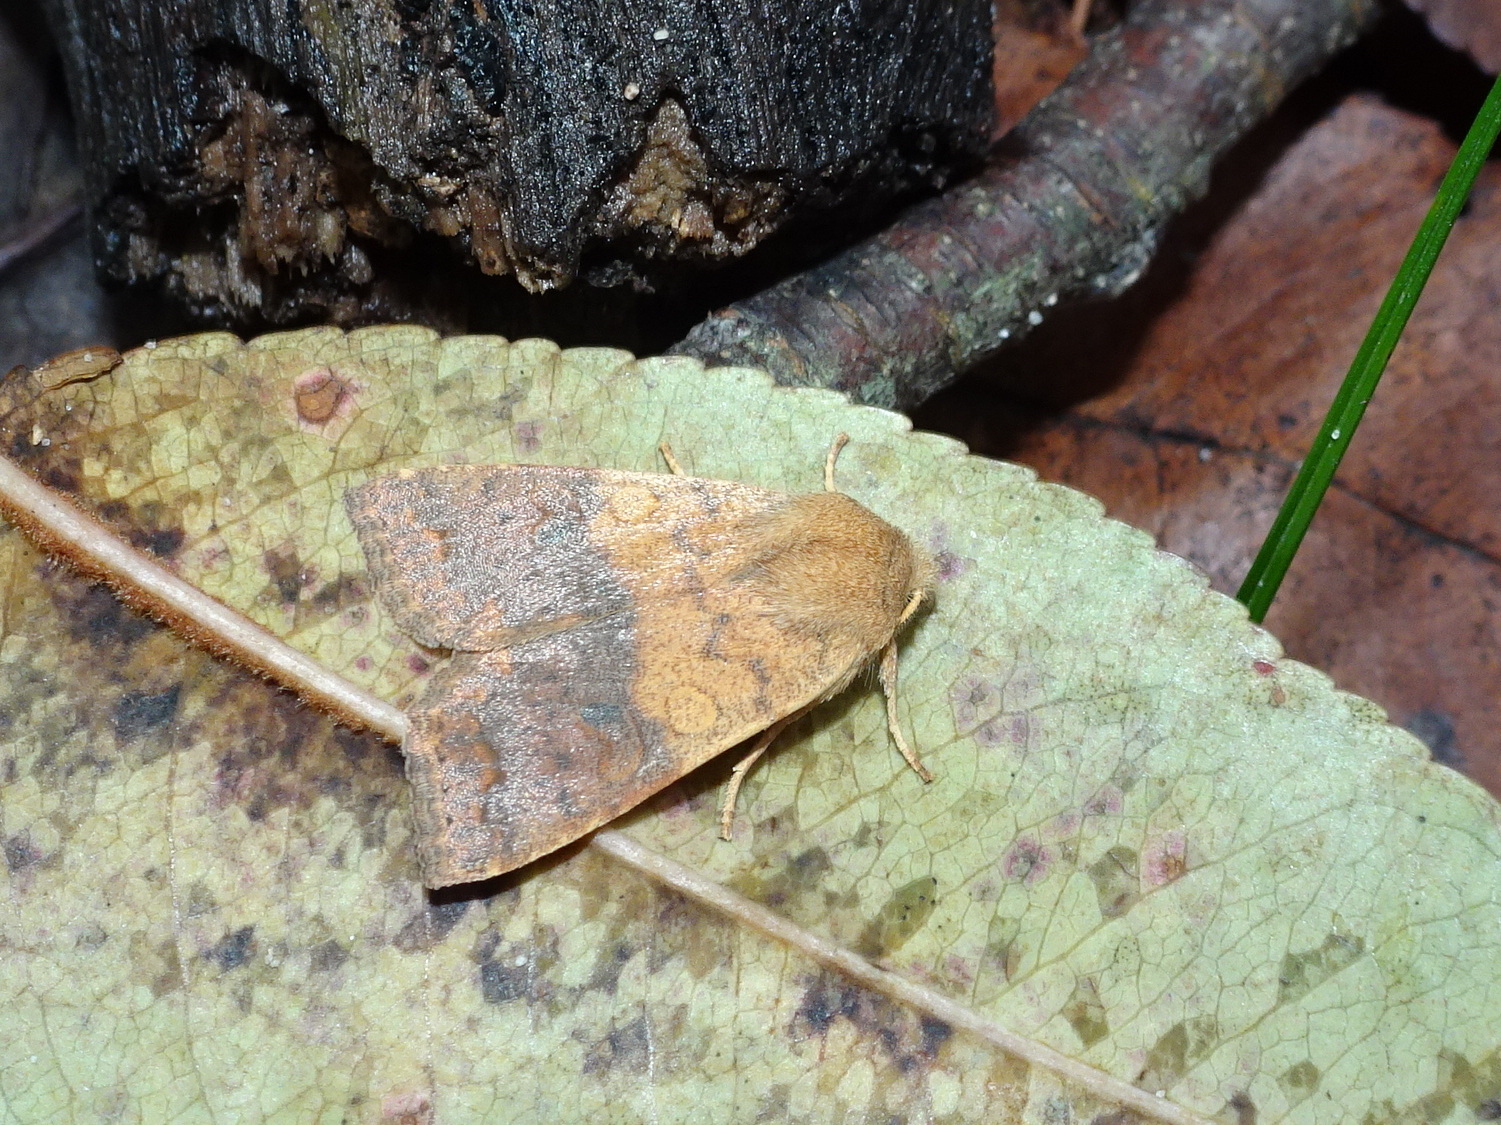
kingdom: Animalia
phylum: Arthropoda
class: Insecta
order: Lepidoptera
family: Noctuidae
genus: Agrochola
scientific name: Agrochola bicolorago
